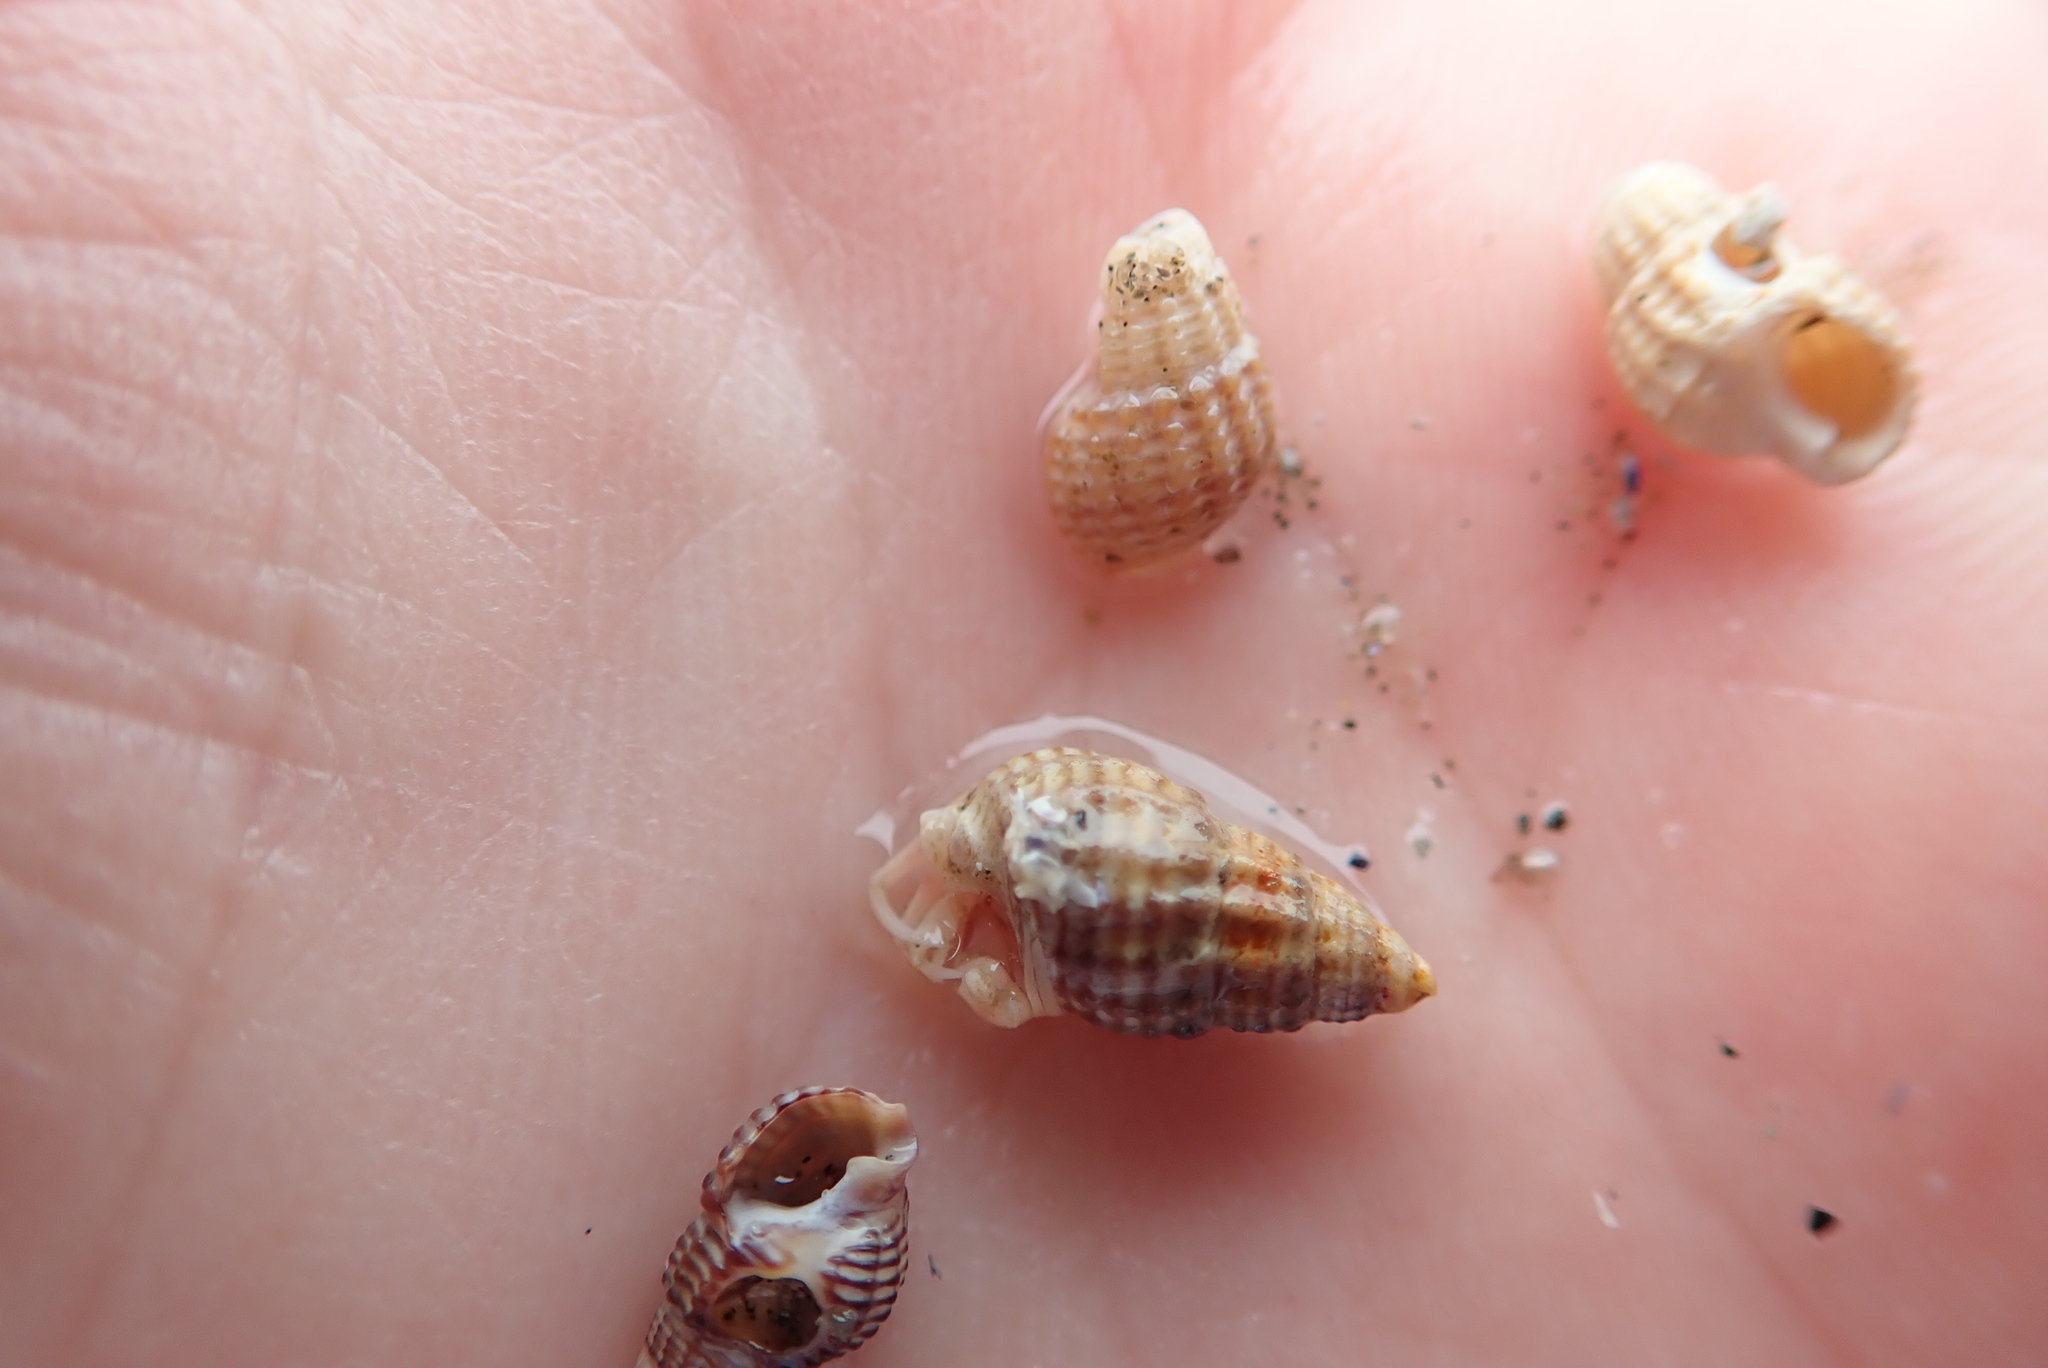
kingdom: Animalia
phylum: Mollusca
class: Gastropoda
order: Neogastropoda
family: Nassariidae
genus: Ilyanassa
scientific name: Ilyanassa trivittata
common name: Three-line mudsnail
